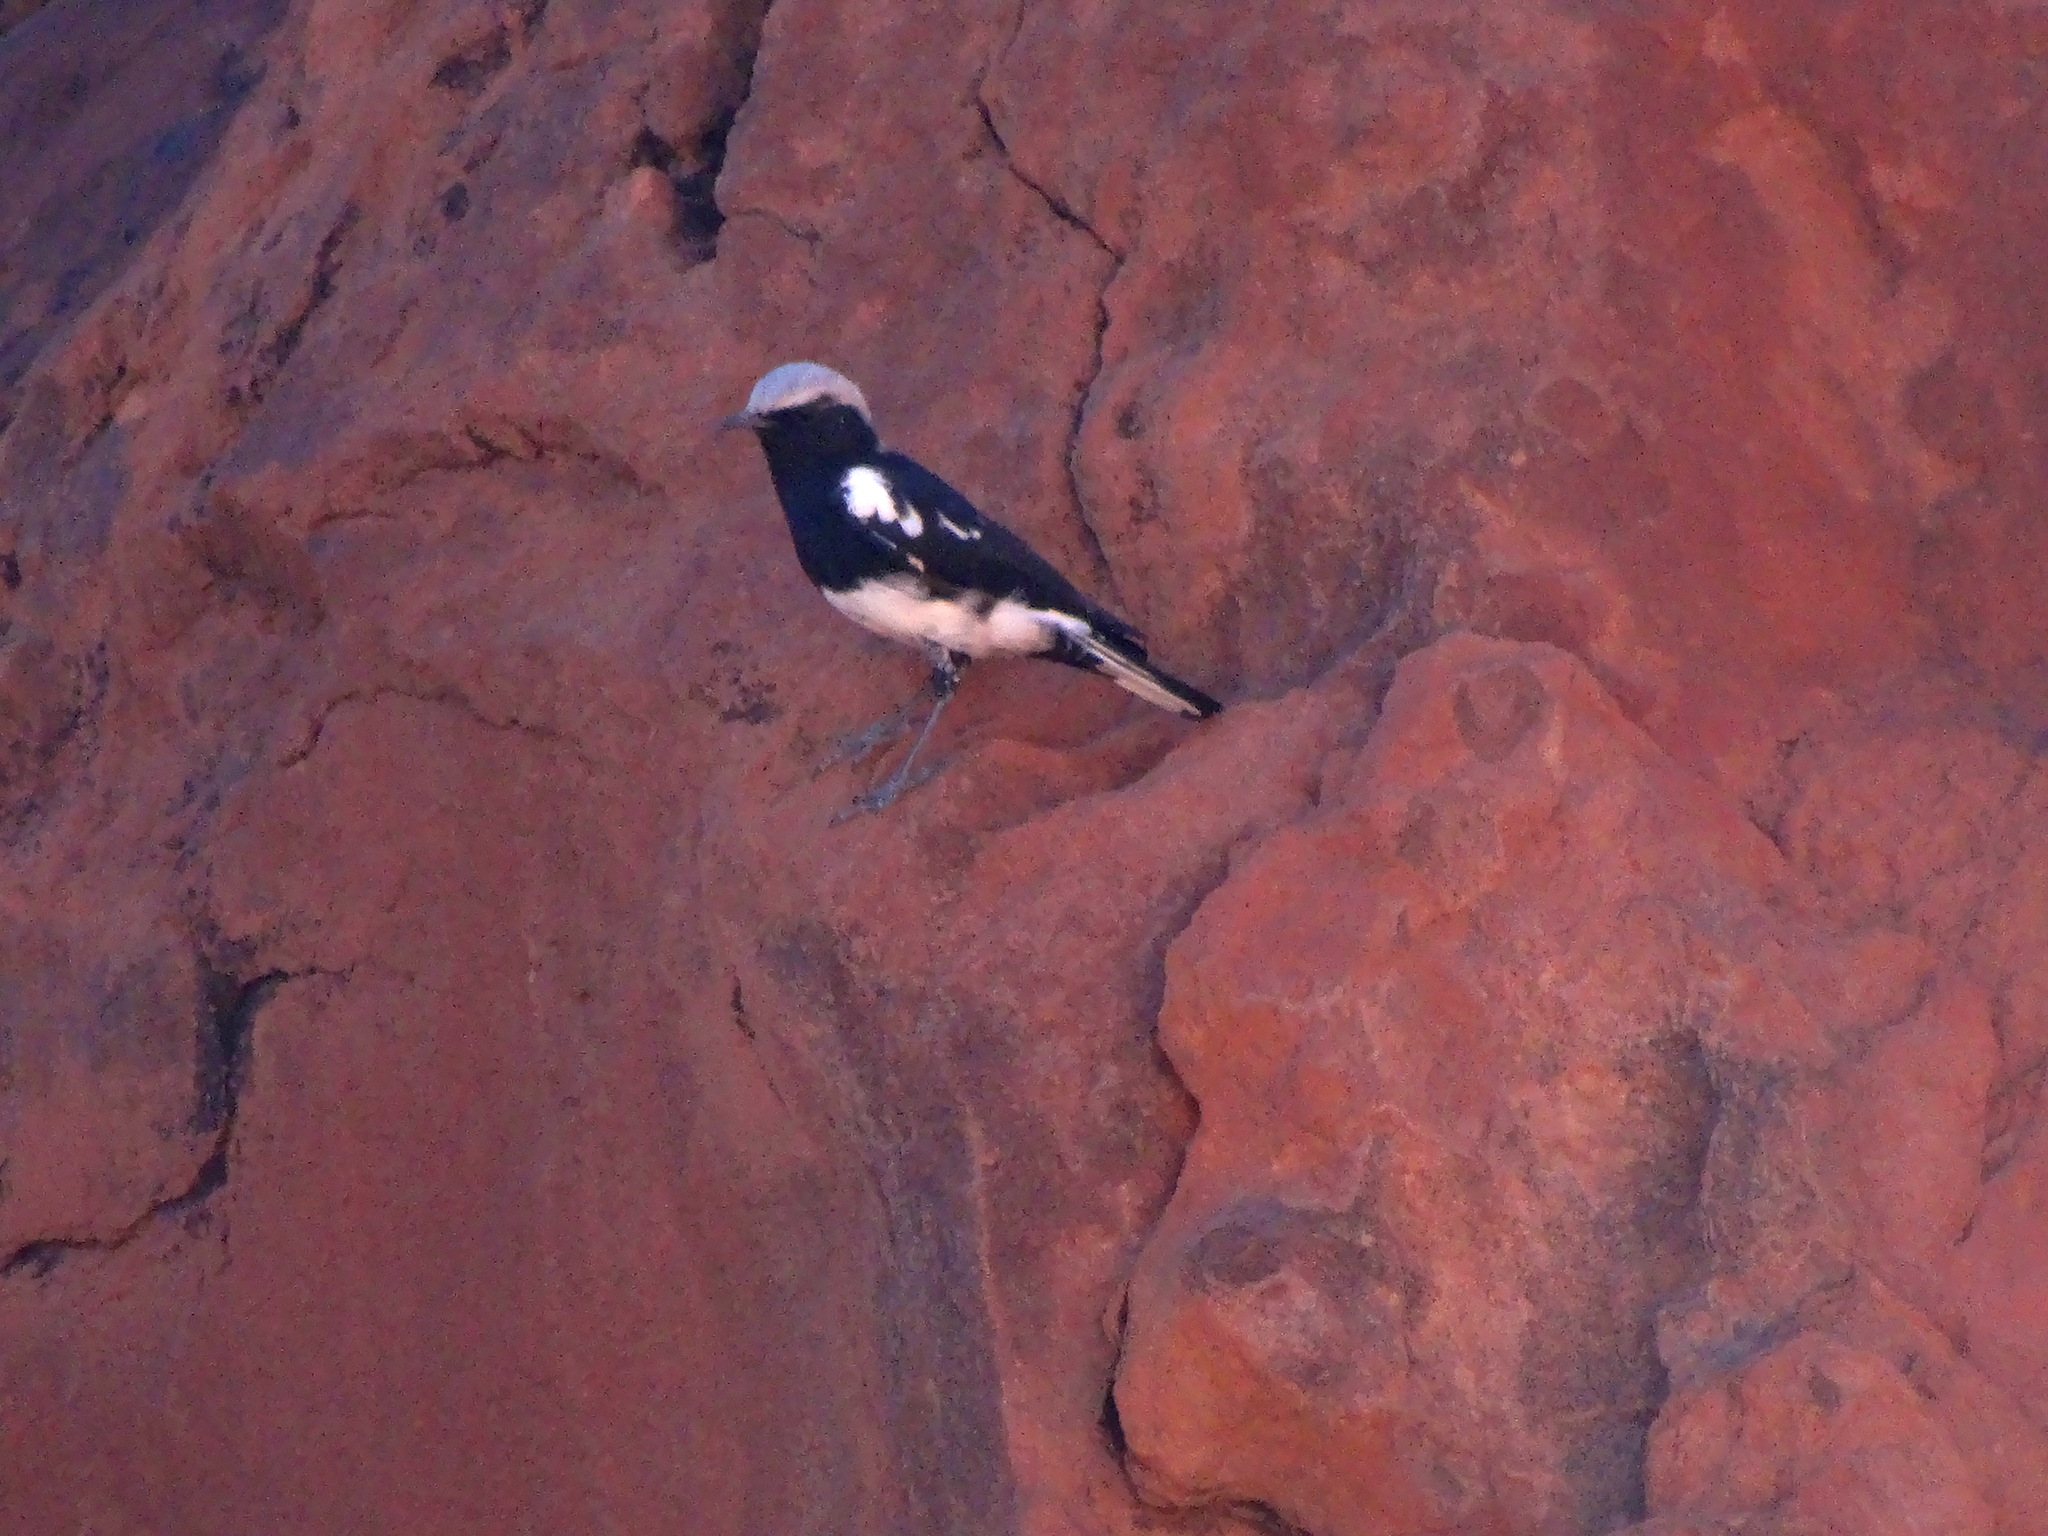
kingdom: Animalia
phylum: Chordata
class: Aves
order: Passeriformes
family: Muscicapidae
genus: Oenanthe
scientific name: Oenanthe monticola
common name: Mountain wheatear
